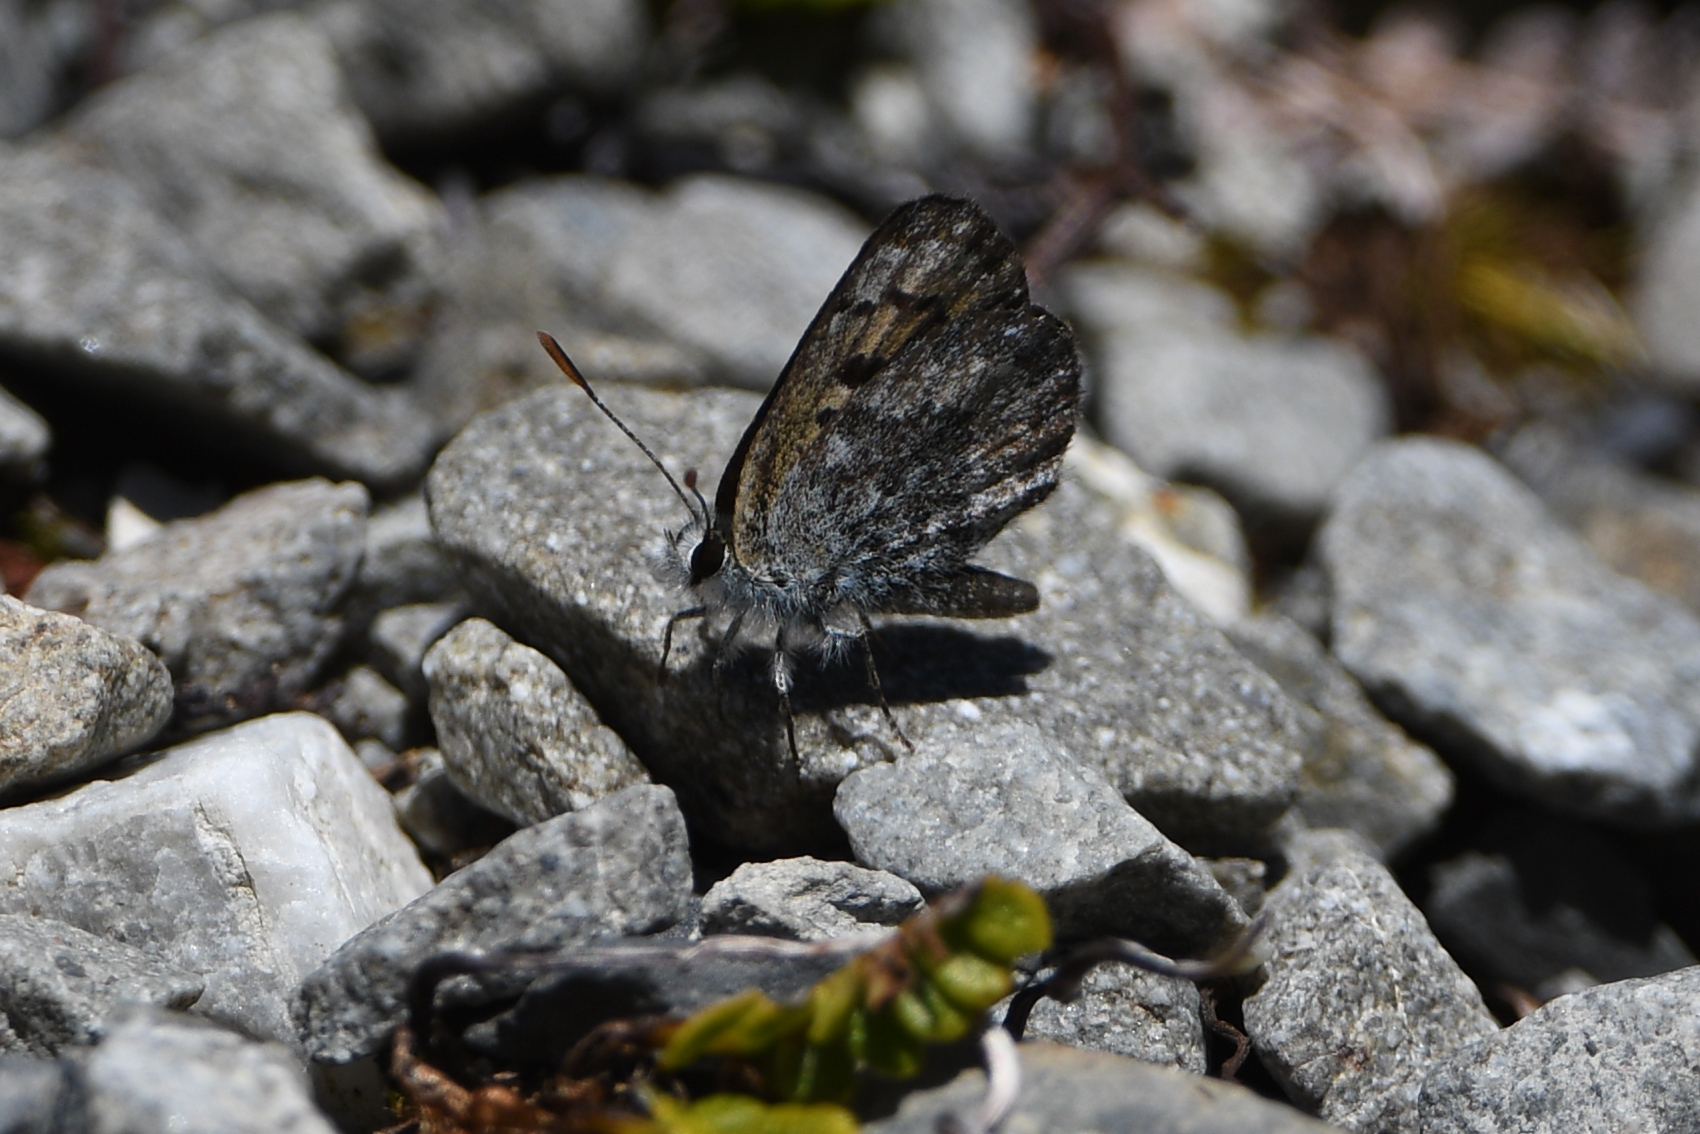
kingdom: Animalia
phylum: Arthropoda
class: Insecta
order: Lepidoptera
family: Lycaenidae
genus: Lycaena
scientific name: Lycaena tama
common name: Canterbury alpine boulder copper
